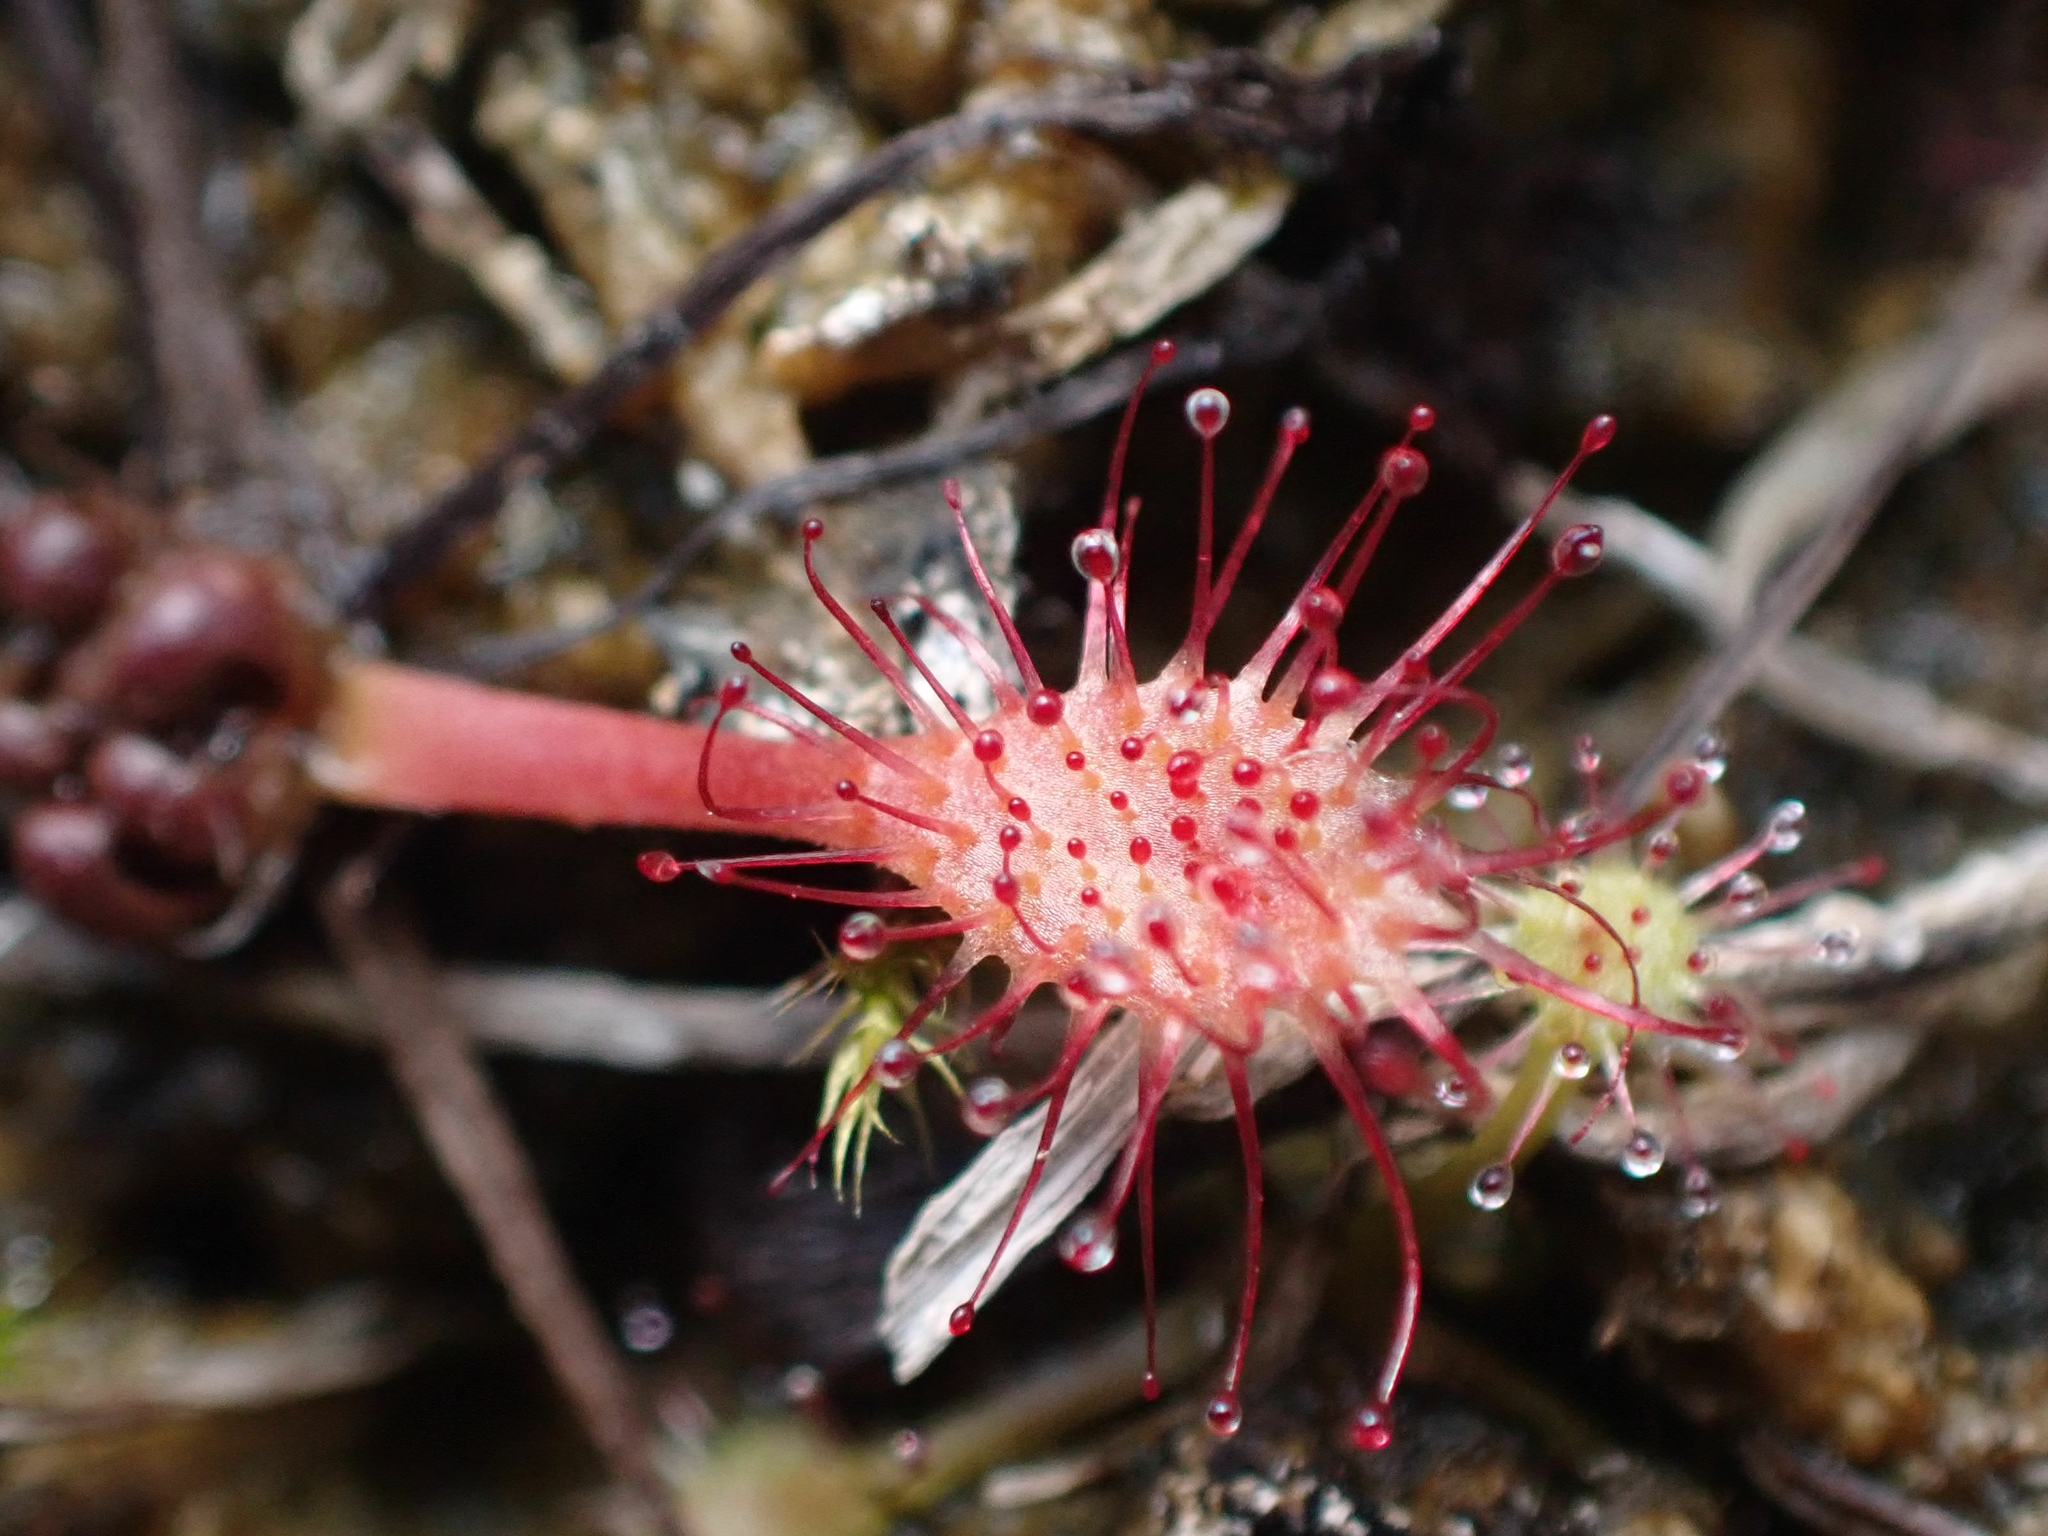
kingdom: Plantae
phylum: Tracheophyta
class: Magnoliopsida
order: Caryophyllales
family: Droseraceae
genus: Drosera
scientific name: Drosera anglica
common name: Great sundew
